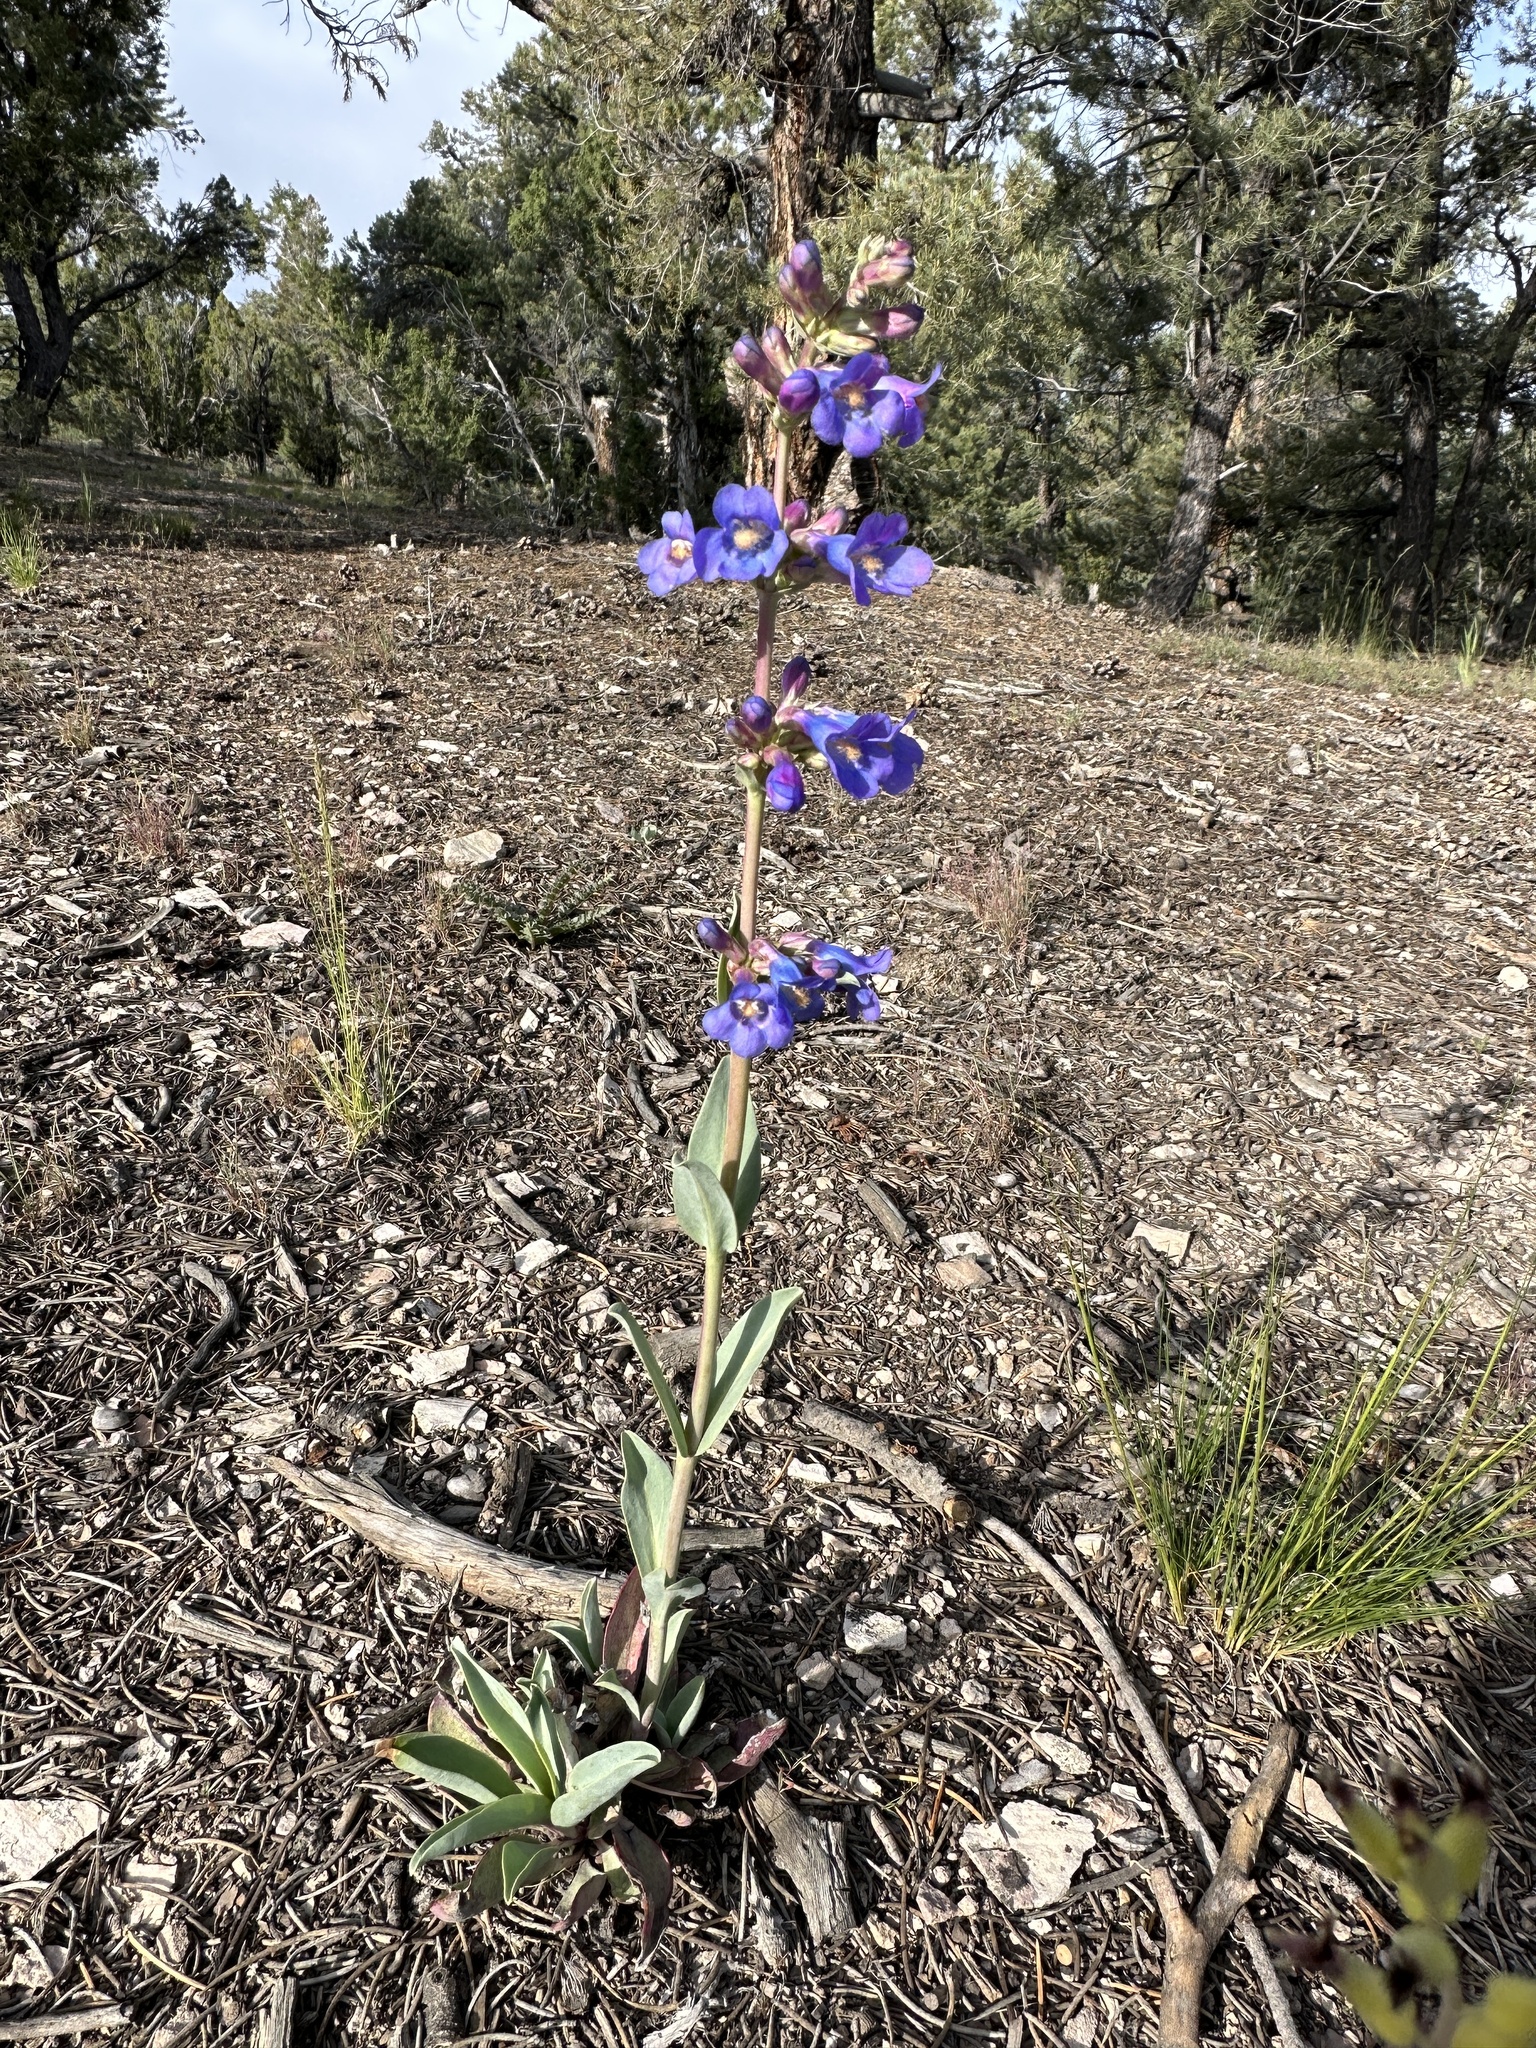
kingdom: Plantae
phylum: Tracheophyta
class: Magnoliopsida
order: Lamiales
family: Plantaginaceae
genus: Penstemon
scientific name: Penstemon pachyphyllus
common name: Thick-leaf penstemon
